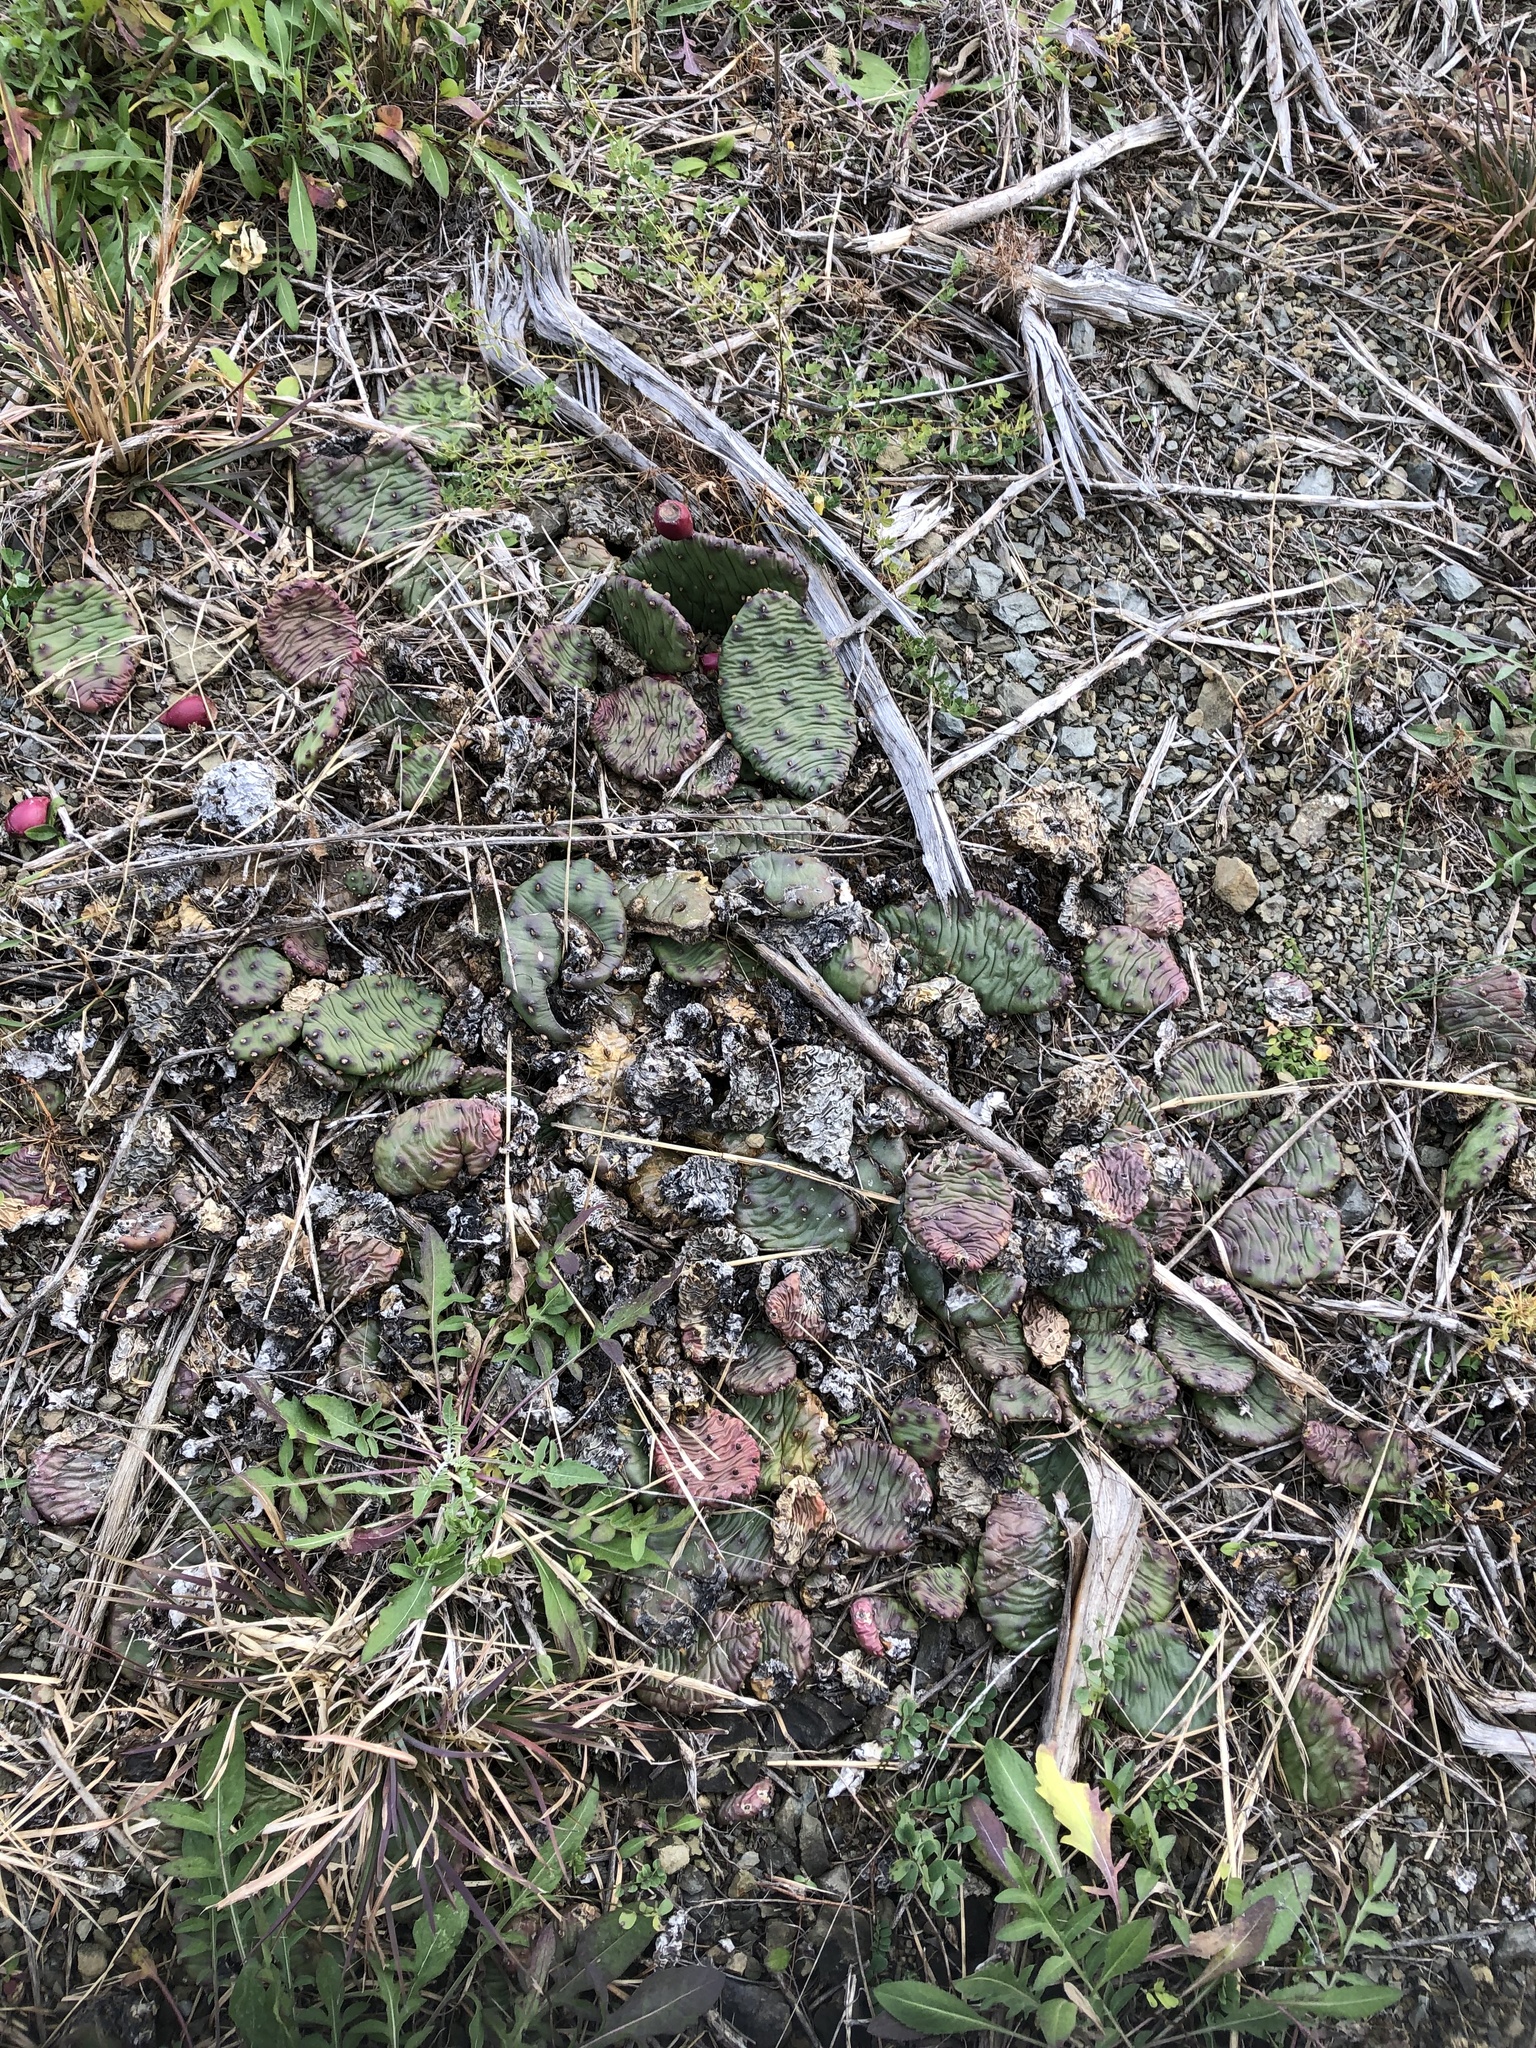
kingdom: Plantae
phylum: Tracheophyta
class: Magnoliopsida
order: Caryophyllales
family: Cactaceae
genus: Opuntia
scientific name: Opuntia humifusa
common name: Eastern prickly-pear
